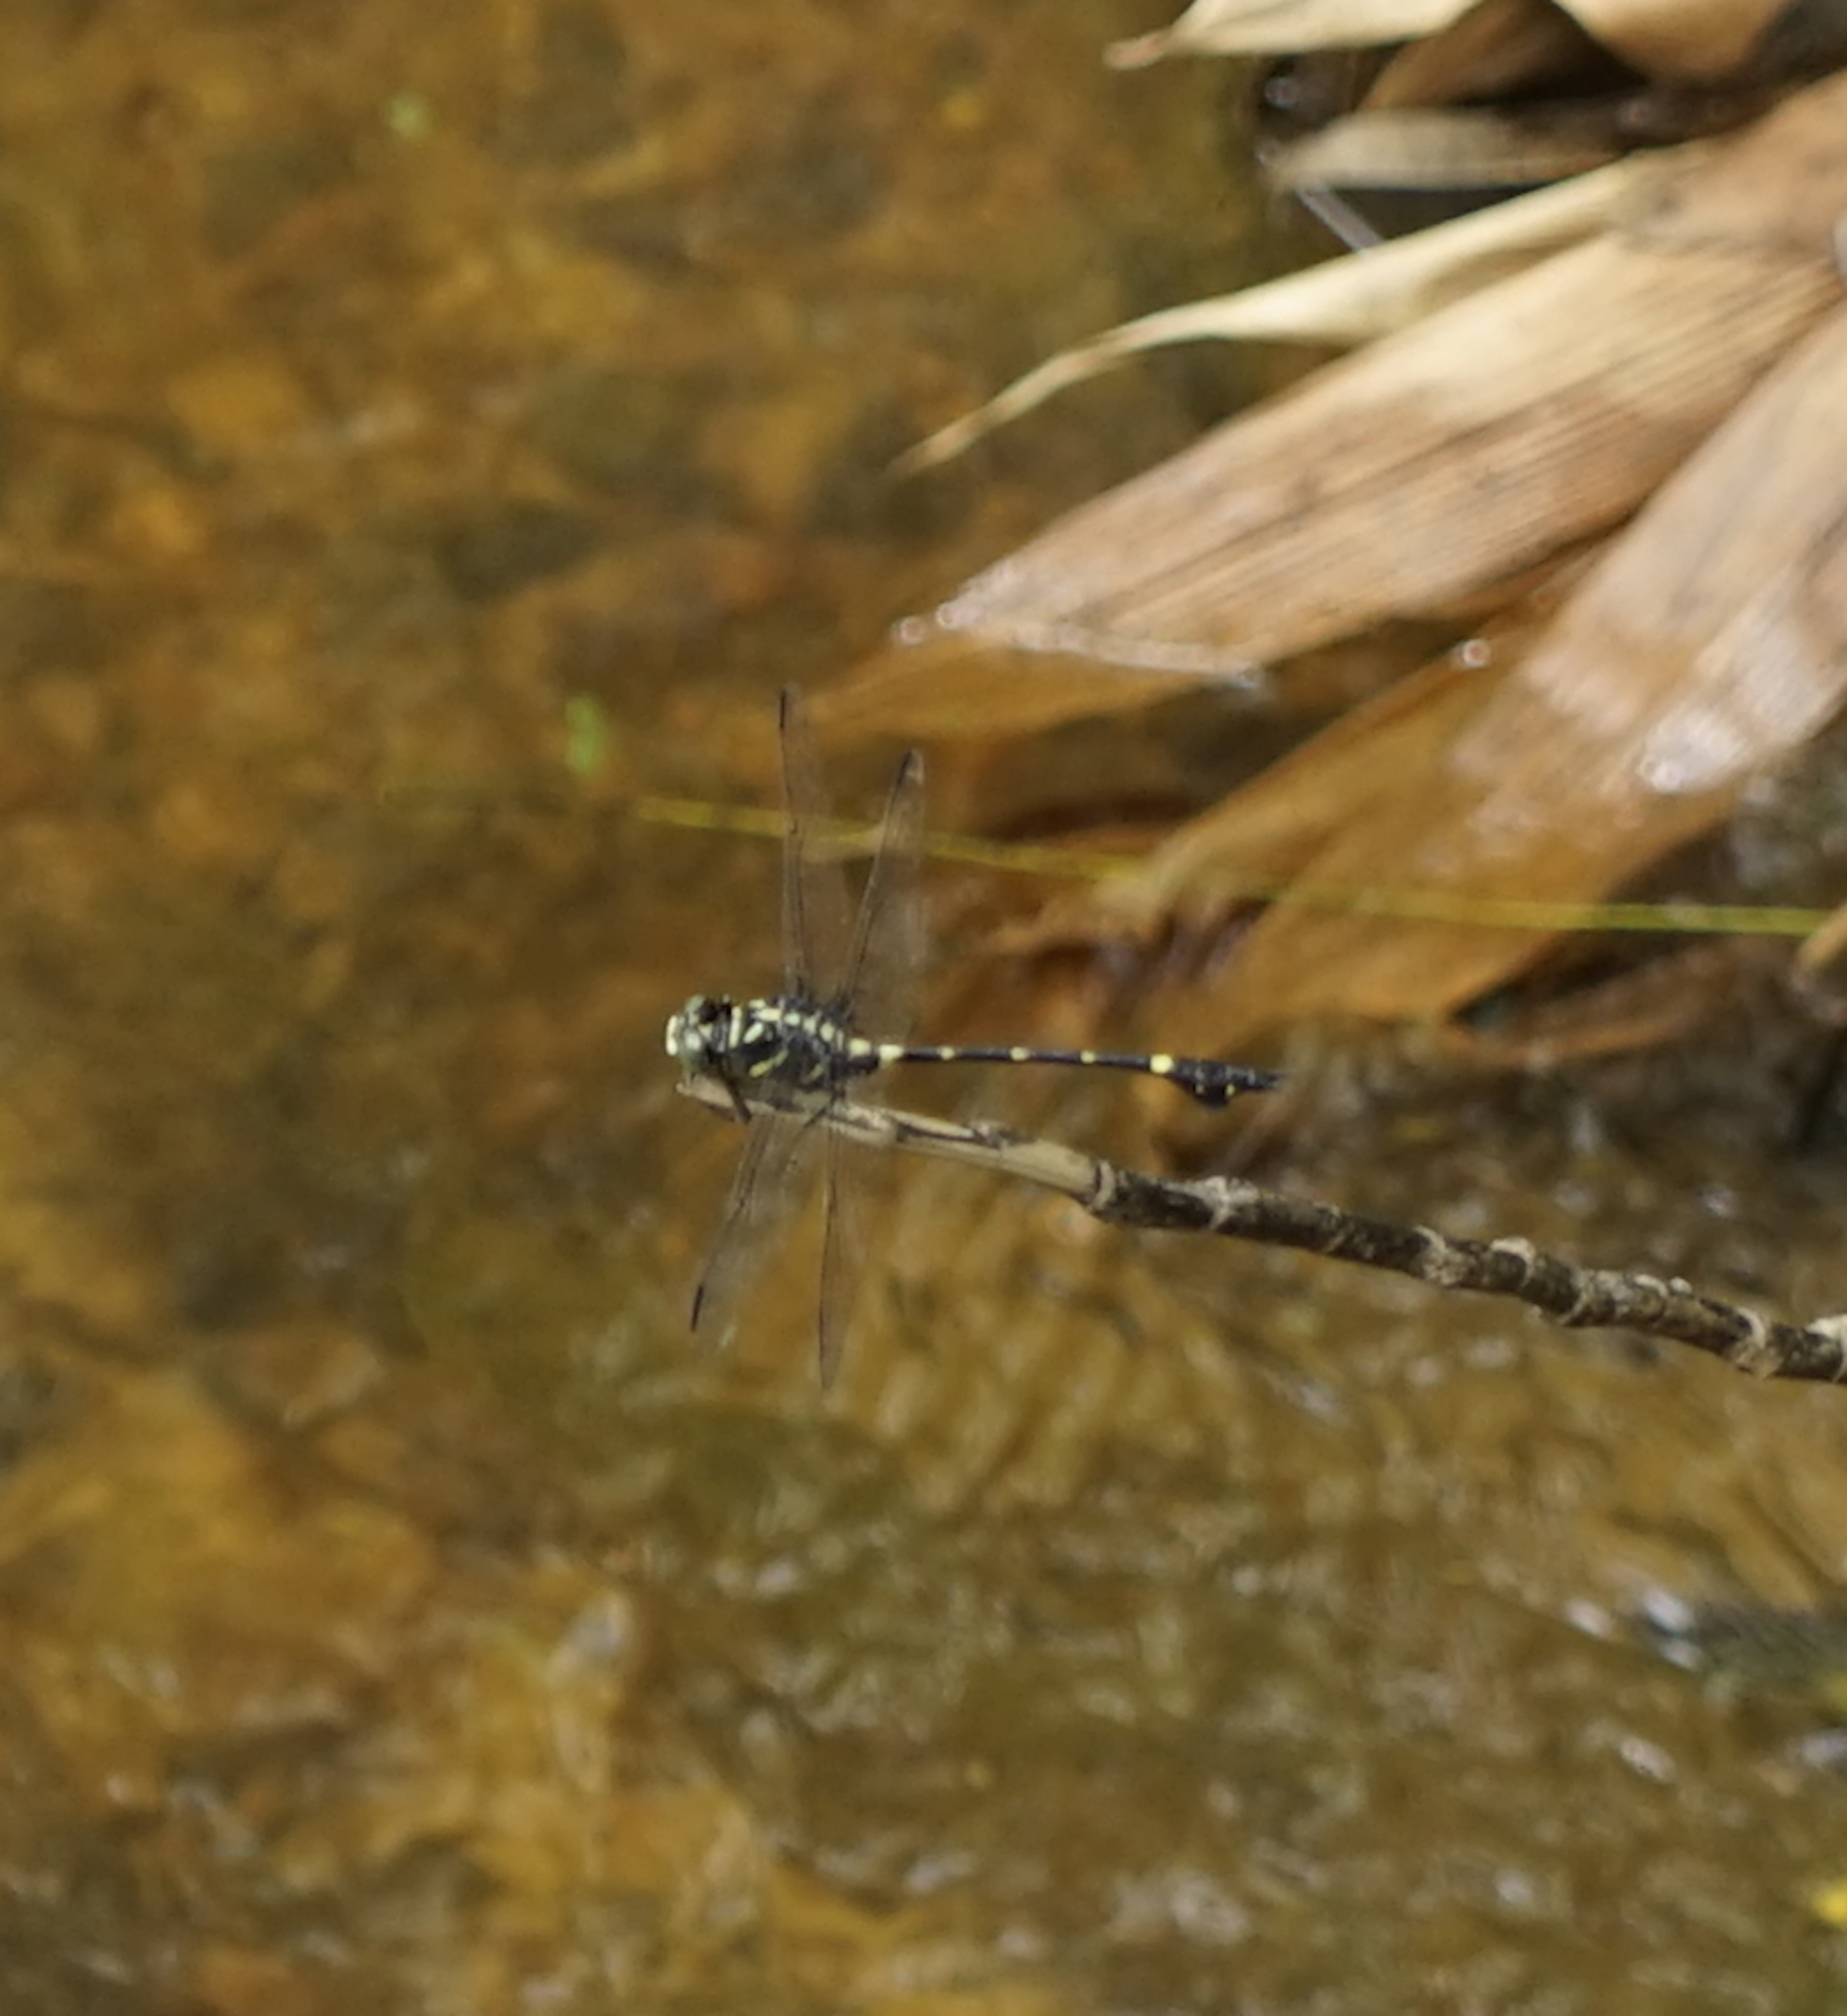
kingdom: Animalia
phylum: Arthropoda
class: Insecta
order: Odonata
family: Gomphidae
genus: Ictinogomphus
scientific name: Ictinogomphus decoratus
